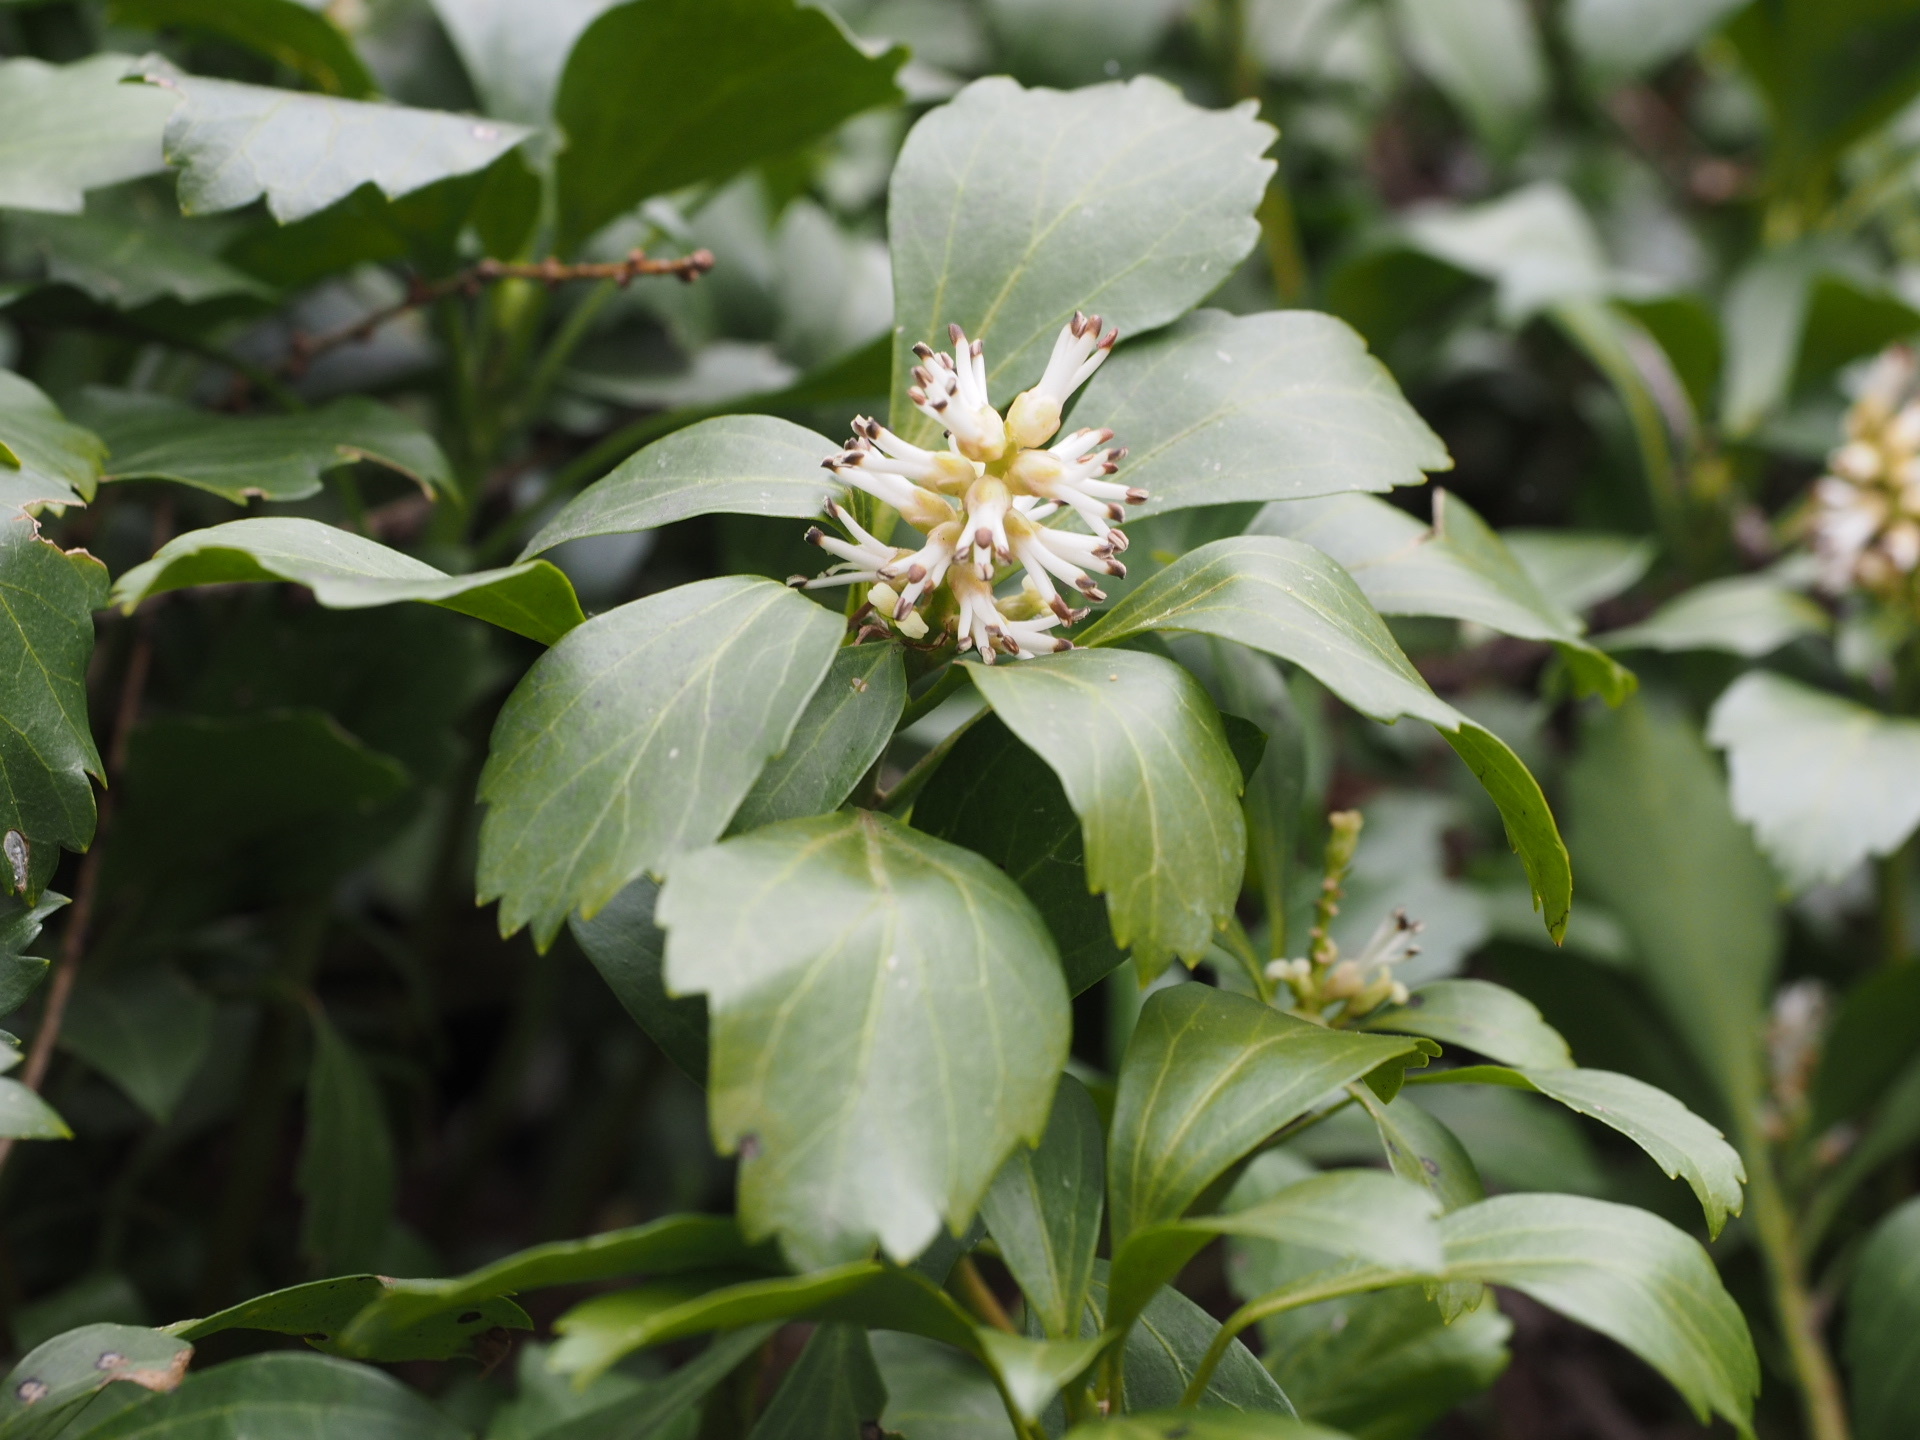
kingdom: Plantae
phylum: Tracheophyta
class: Magnoliopsida
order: Buxales
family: Buxaceae
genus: Pachysandra
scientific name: Pachysandra terminalis
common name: Japanese pachysandra
